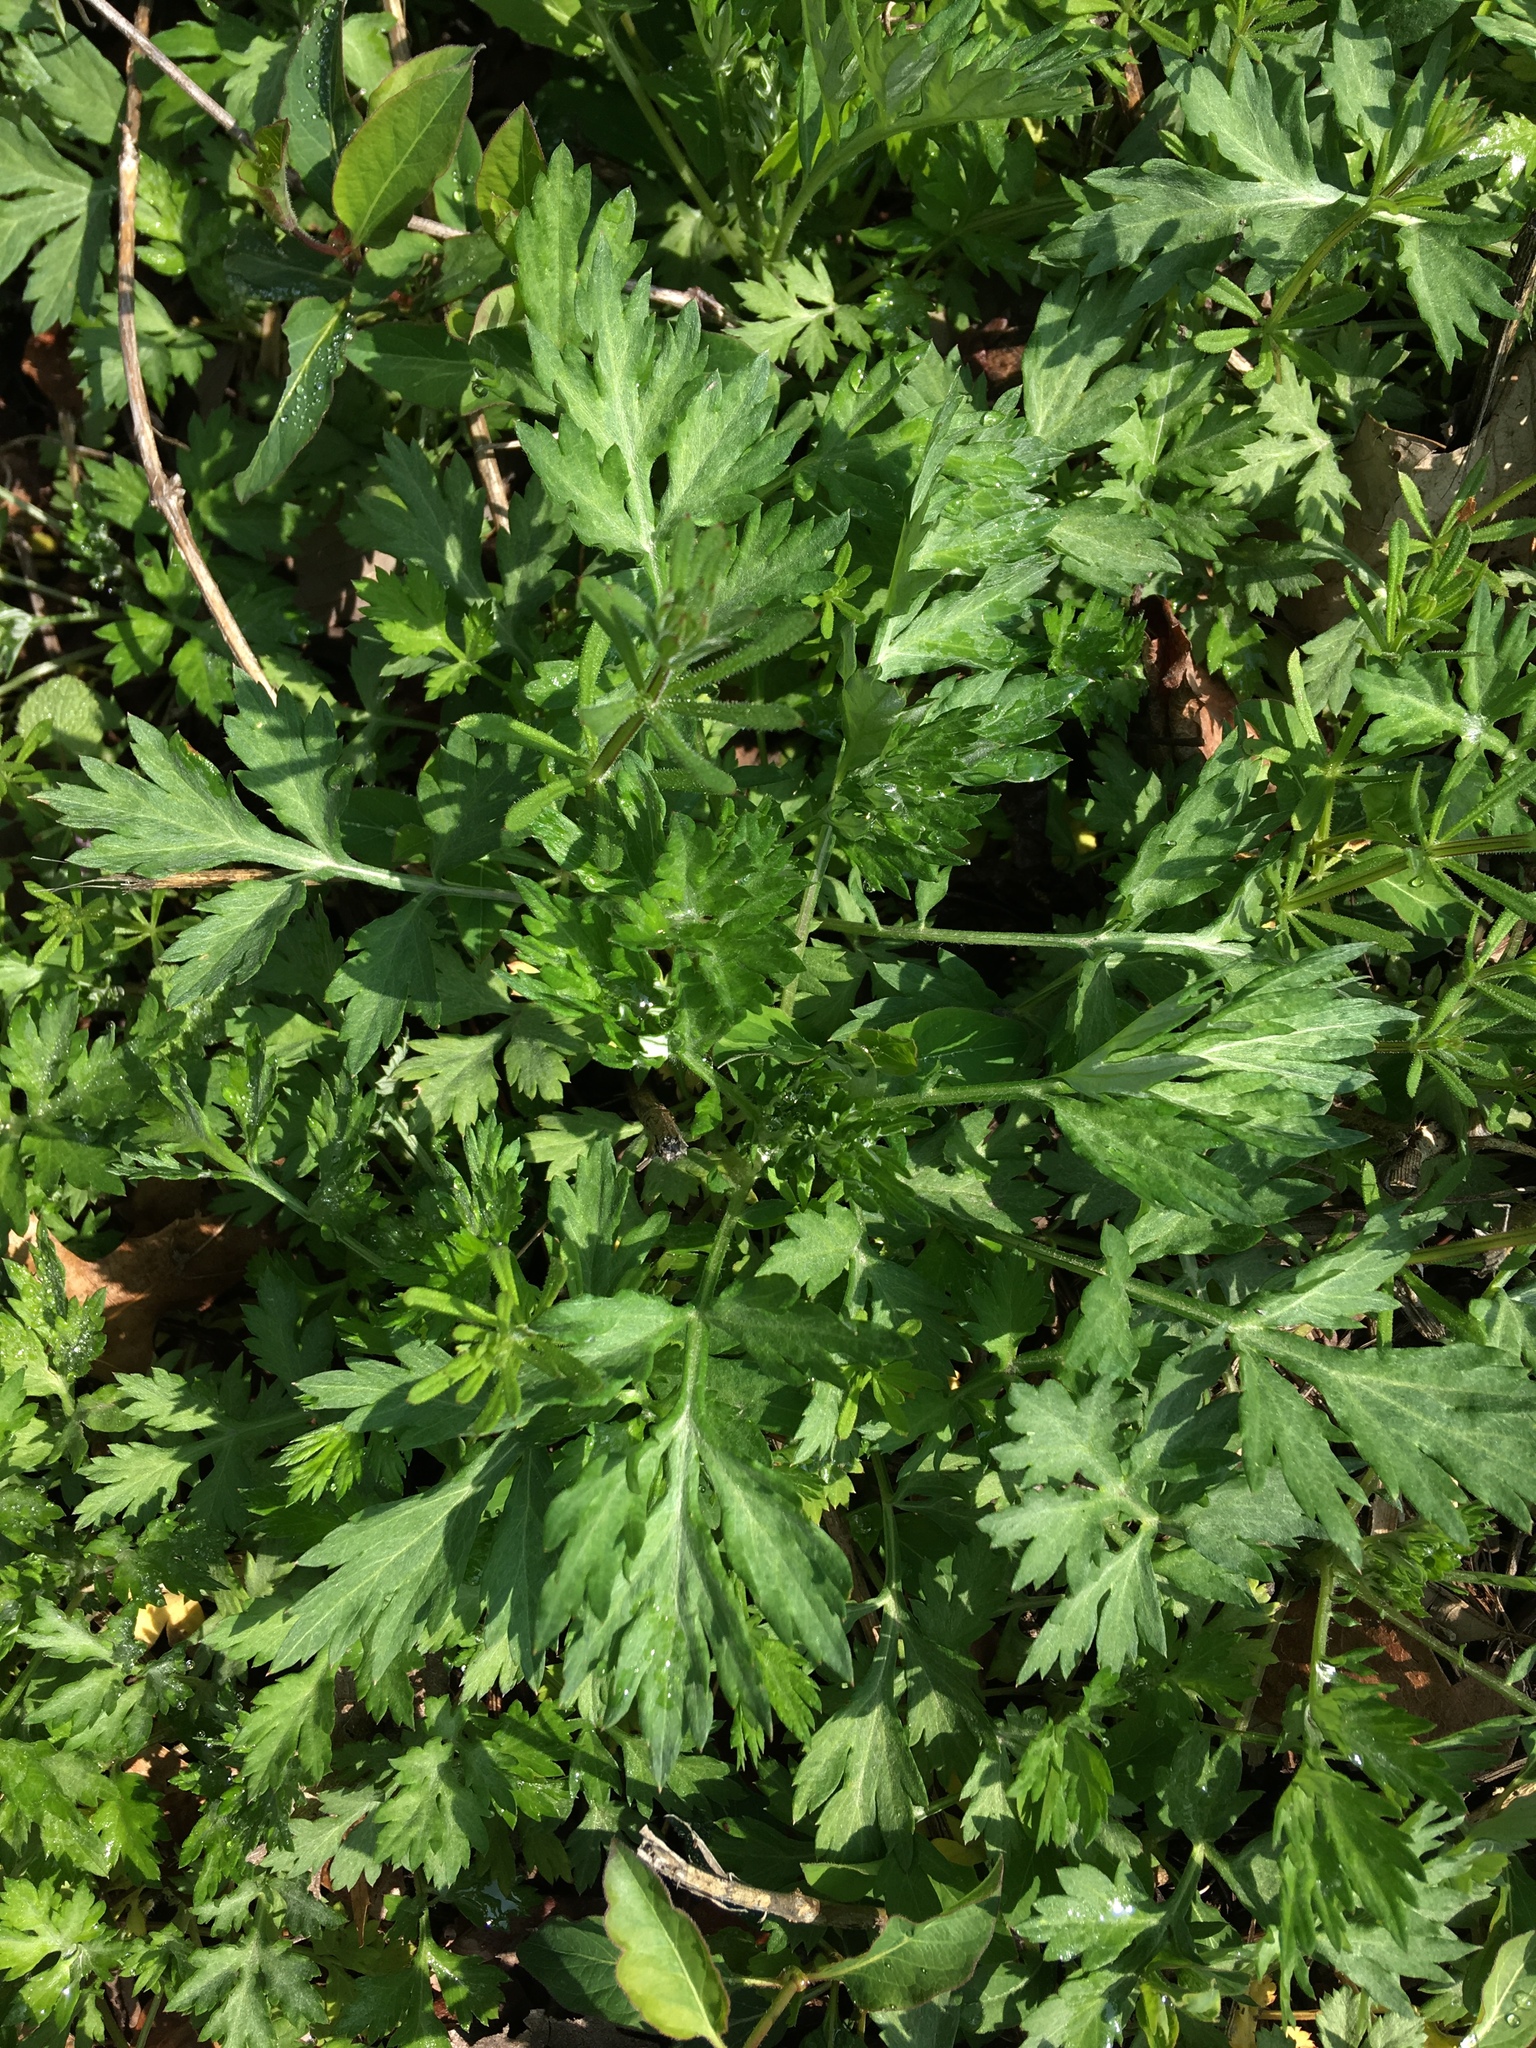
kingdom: Plantae
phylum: Tracheophyta
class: Magnoliopsida
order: Asterales
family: Asteraceae
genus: Artemisia
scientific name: Artemisia vulgaris
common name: Mugwort
